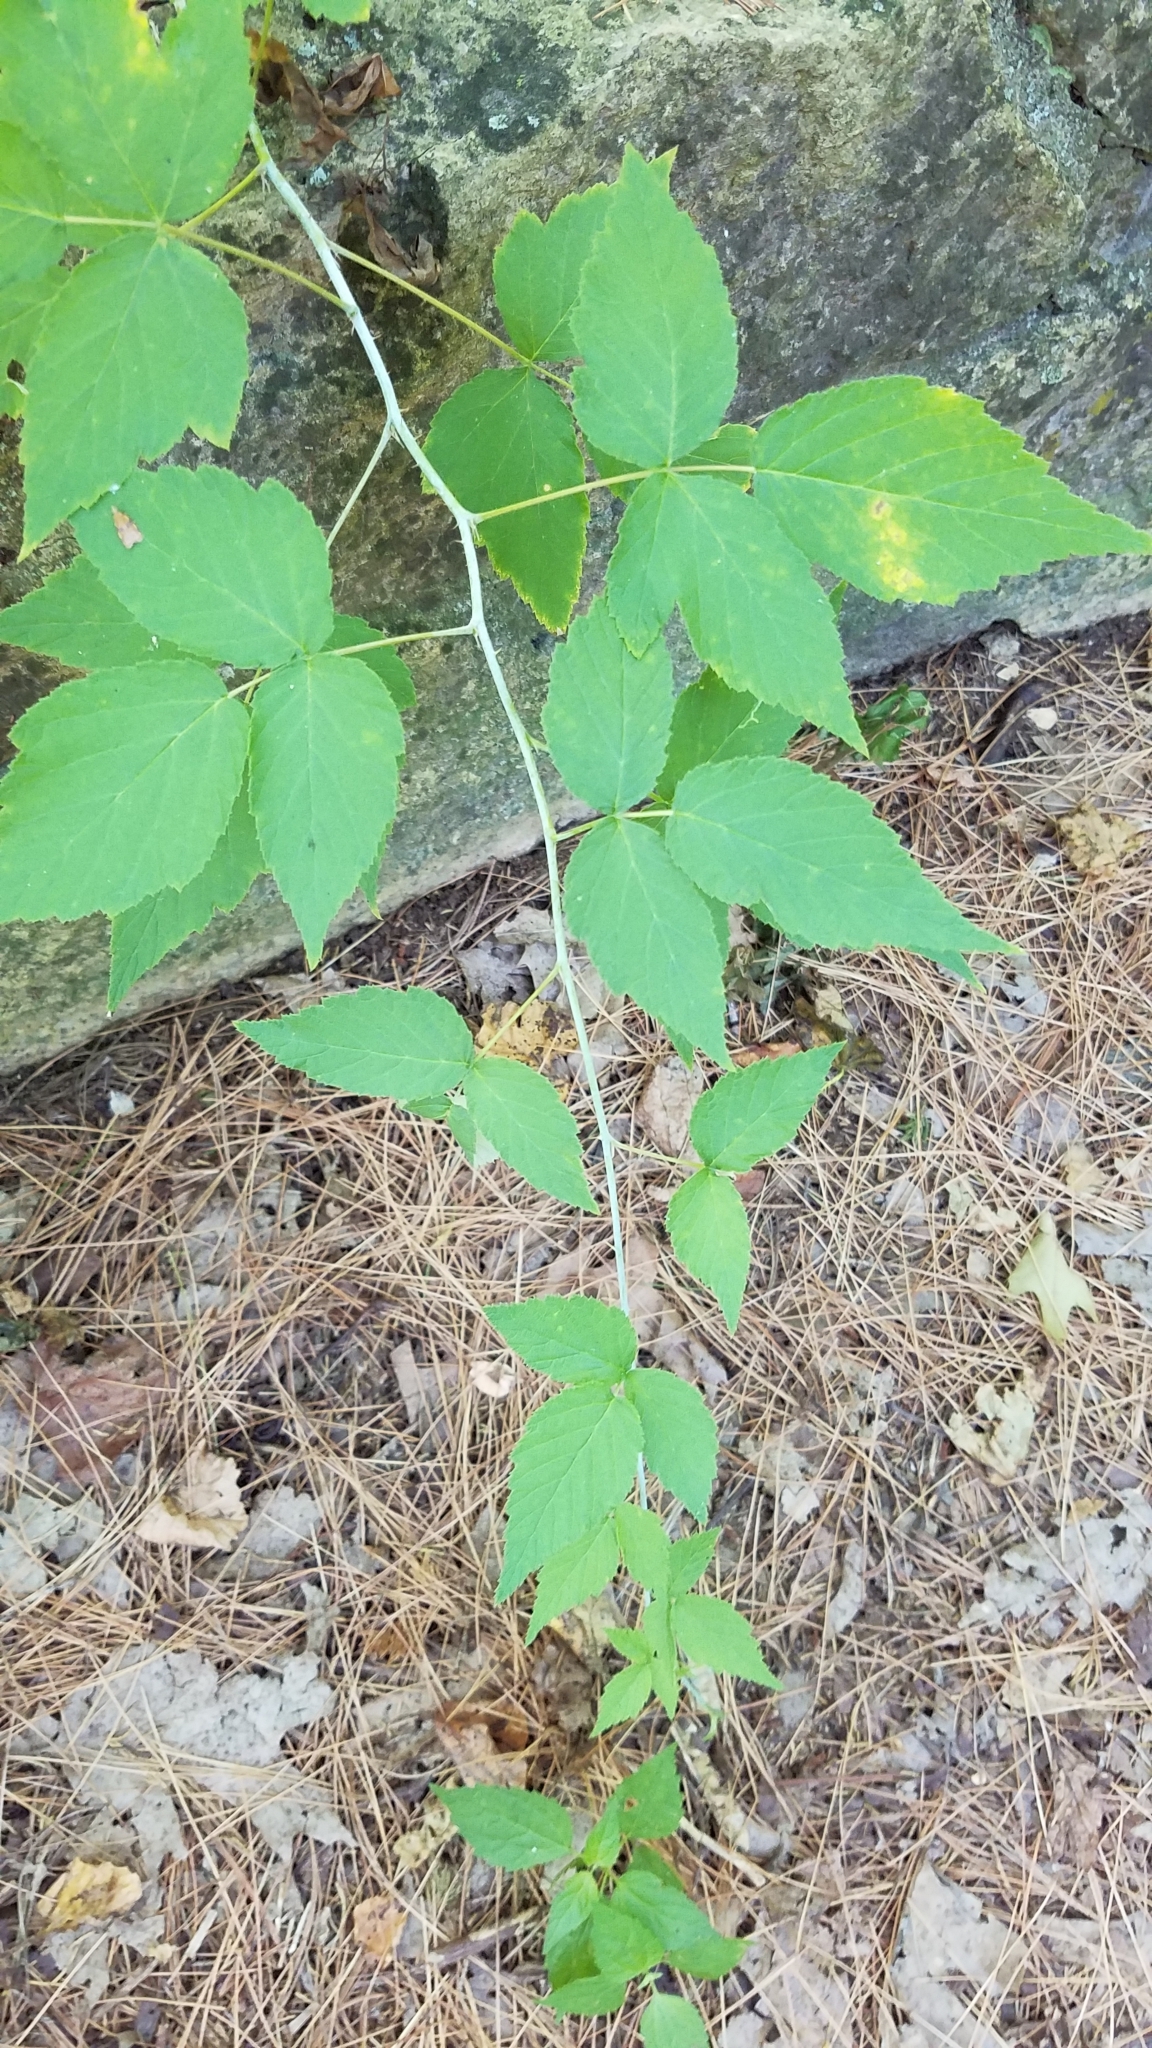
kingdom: Plantae
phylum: Tracheophyta
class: Magnoliopsida
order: Rosales
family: Rosaceae
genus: Rubus
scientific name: Rubus occidentalis
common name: Black raspberry
